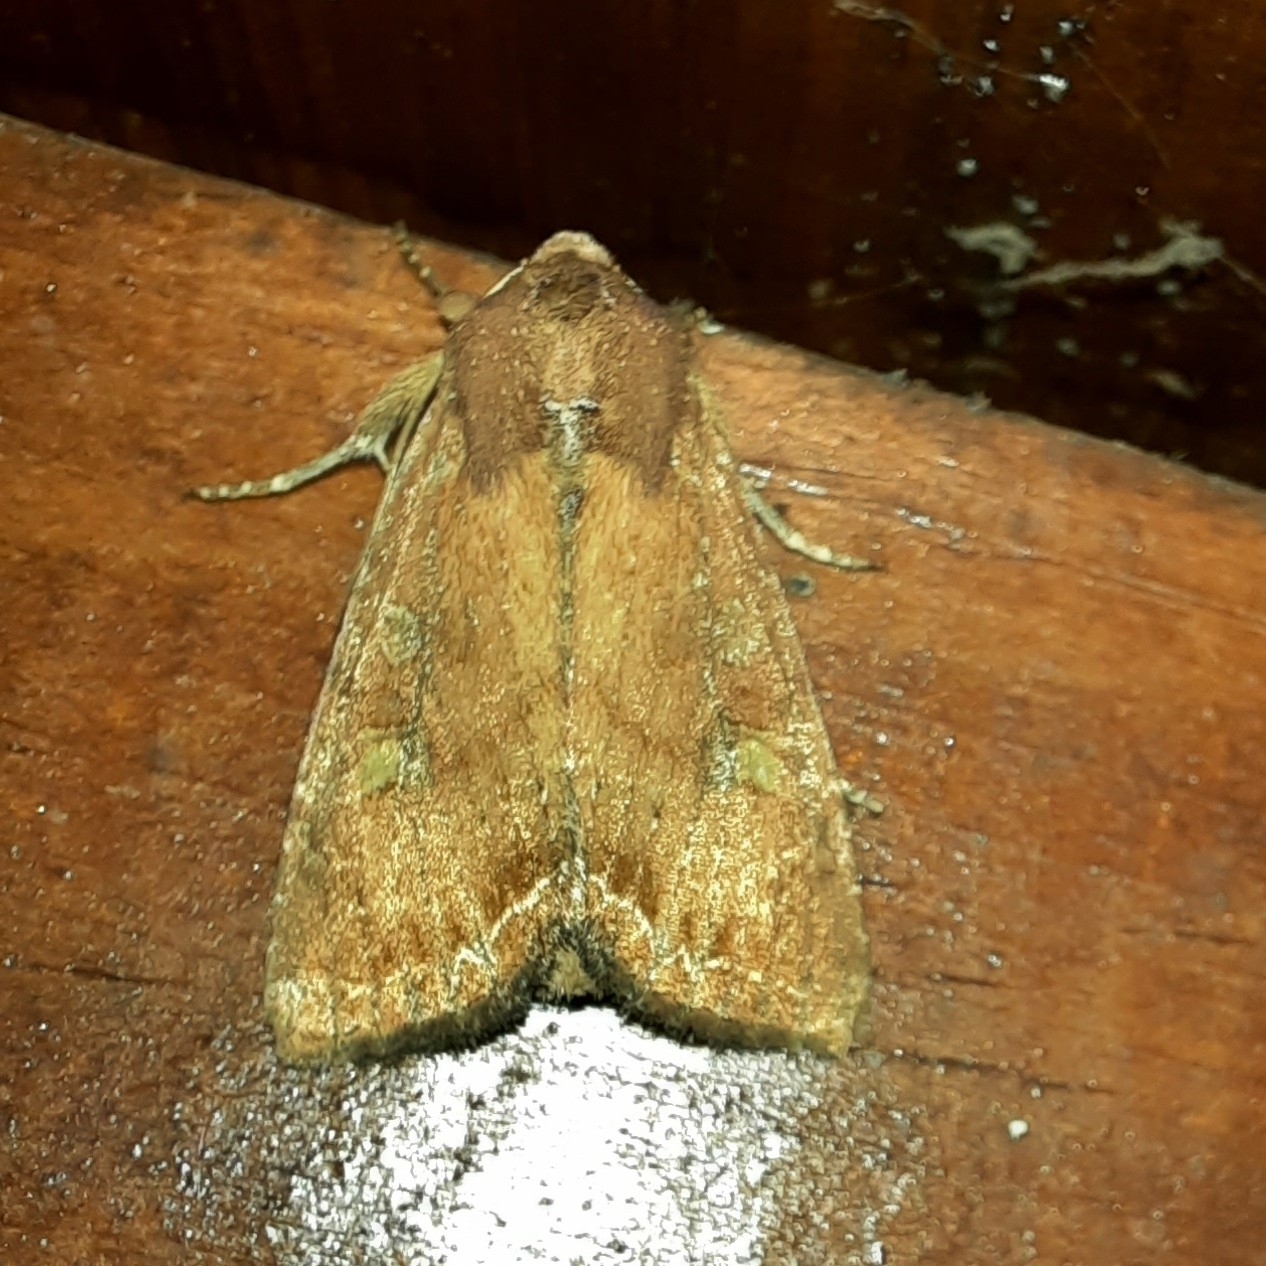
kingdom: Animalia
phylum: Arthropoda
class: Insecta
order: Lepidoptera
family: Noctuidae
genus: Lacanobia
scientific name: Lacanobia oleracea
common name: Bright-line brown-eye
